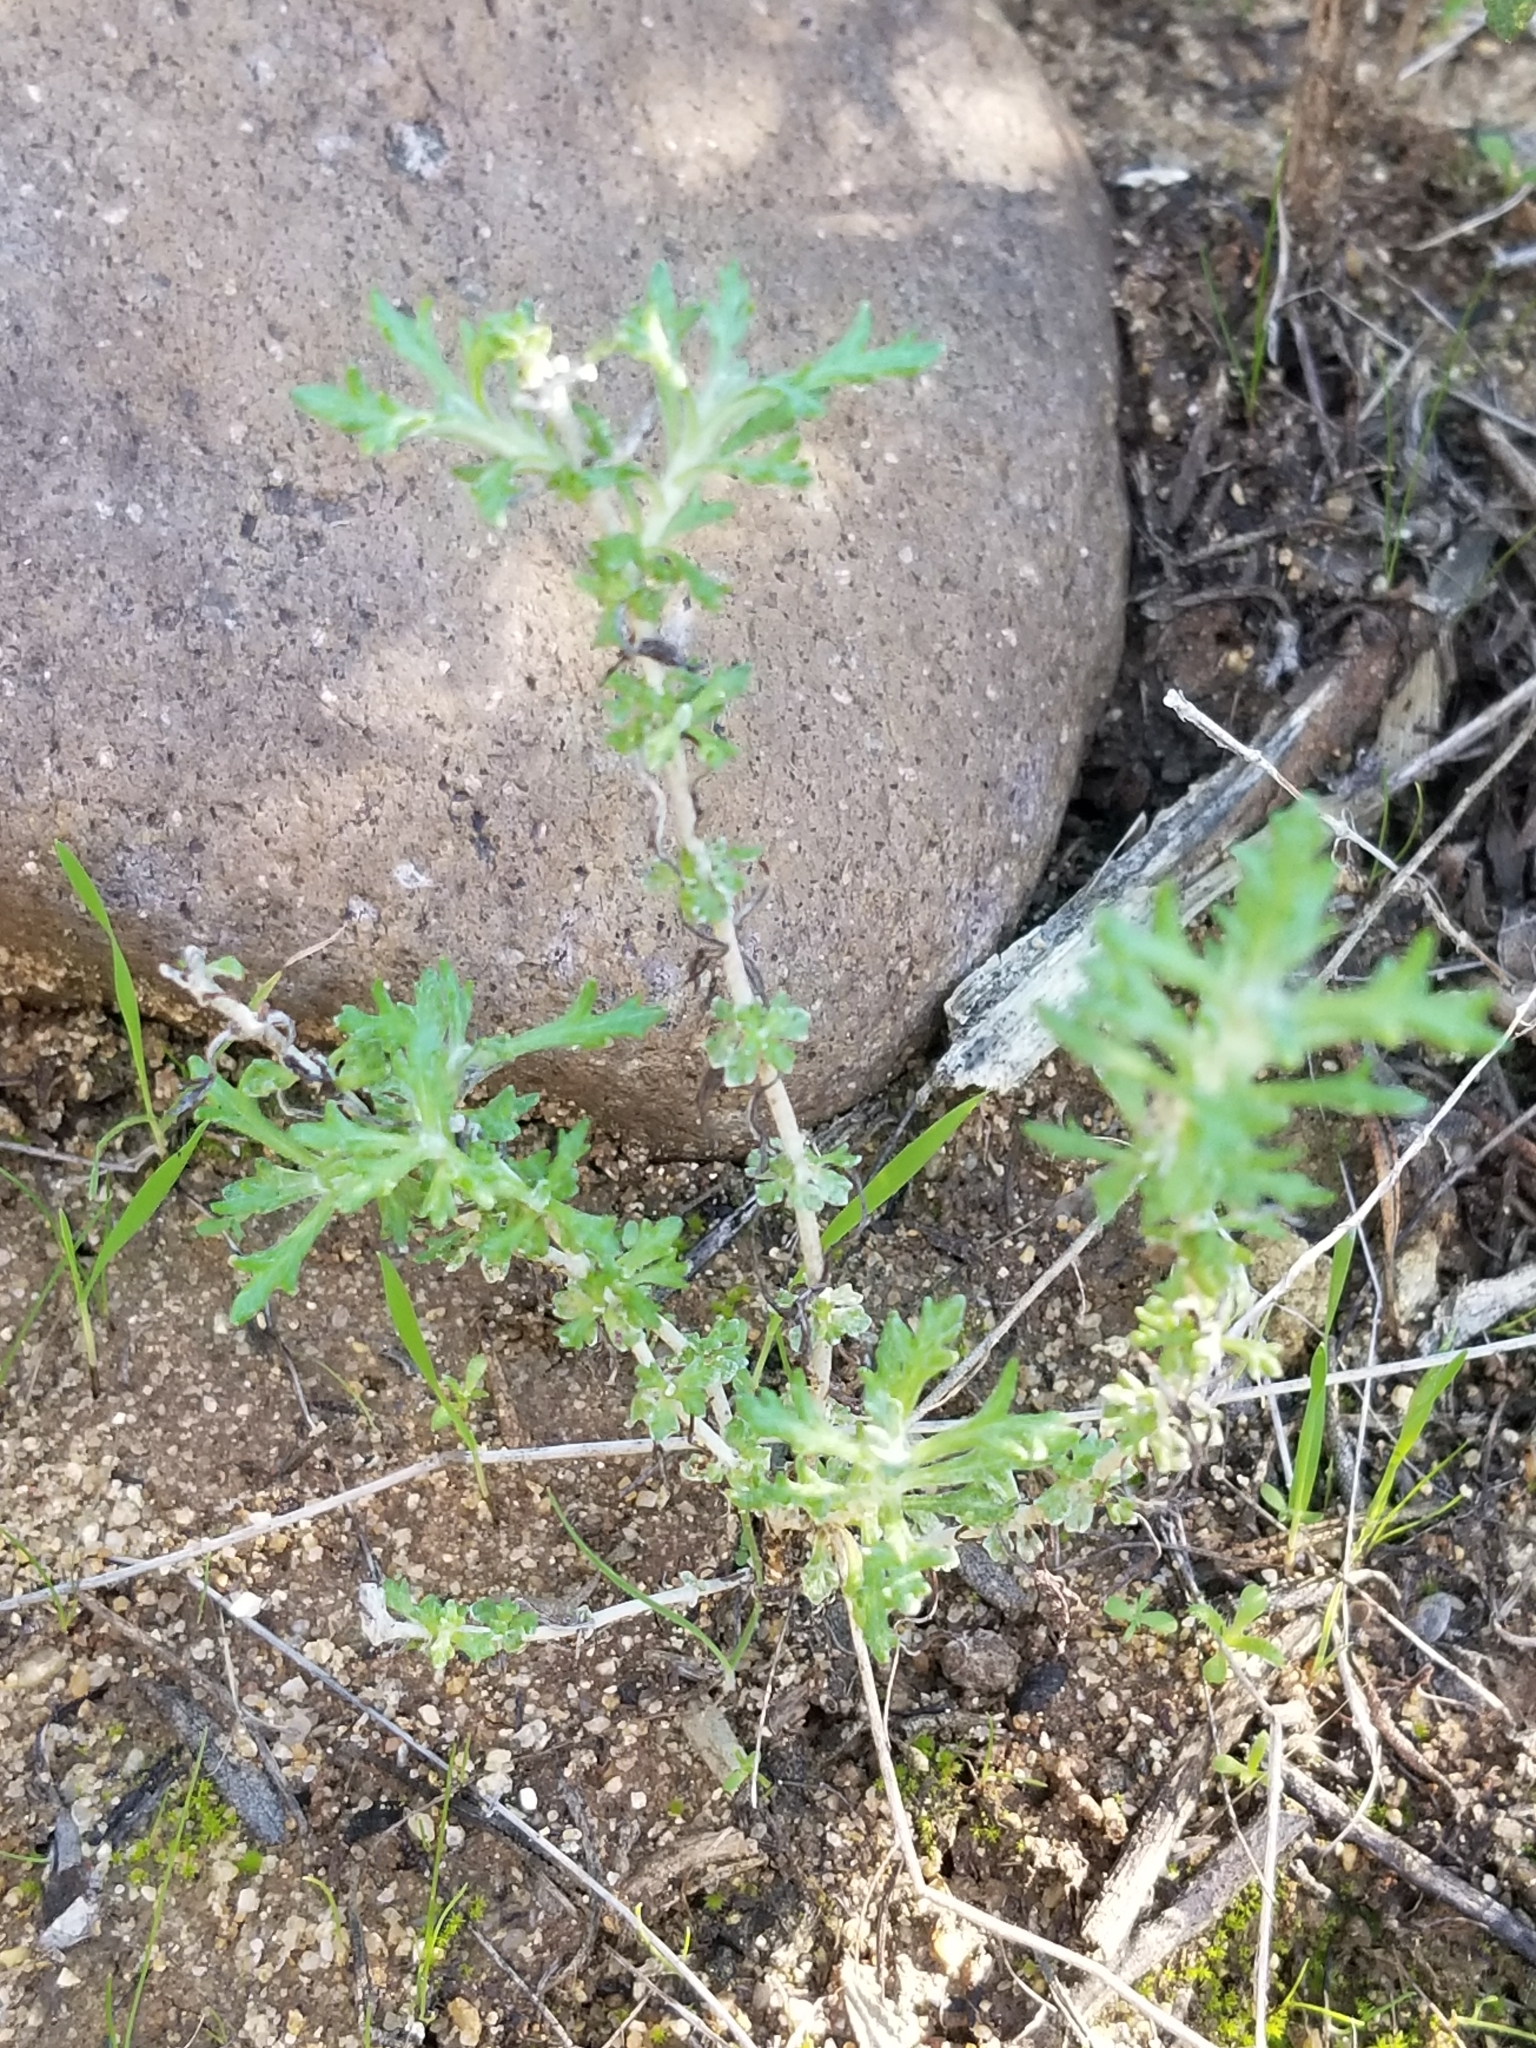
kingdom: Plantae
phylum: Tracheophyta
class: Magnoliopsida
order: Asterales
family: Asteraceae
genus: Eriophyllum
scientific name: Eriophyllum confertiflorum
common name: Golden-yarrow
